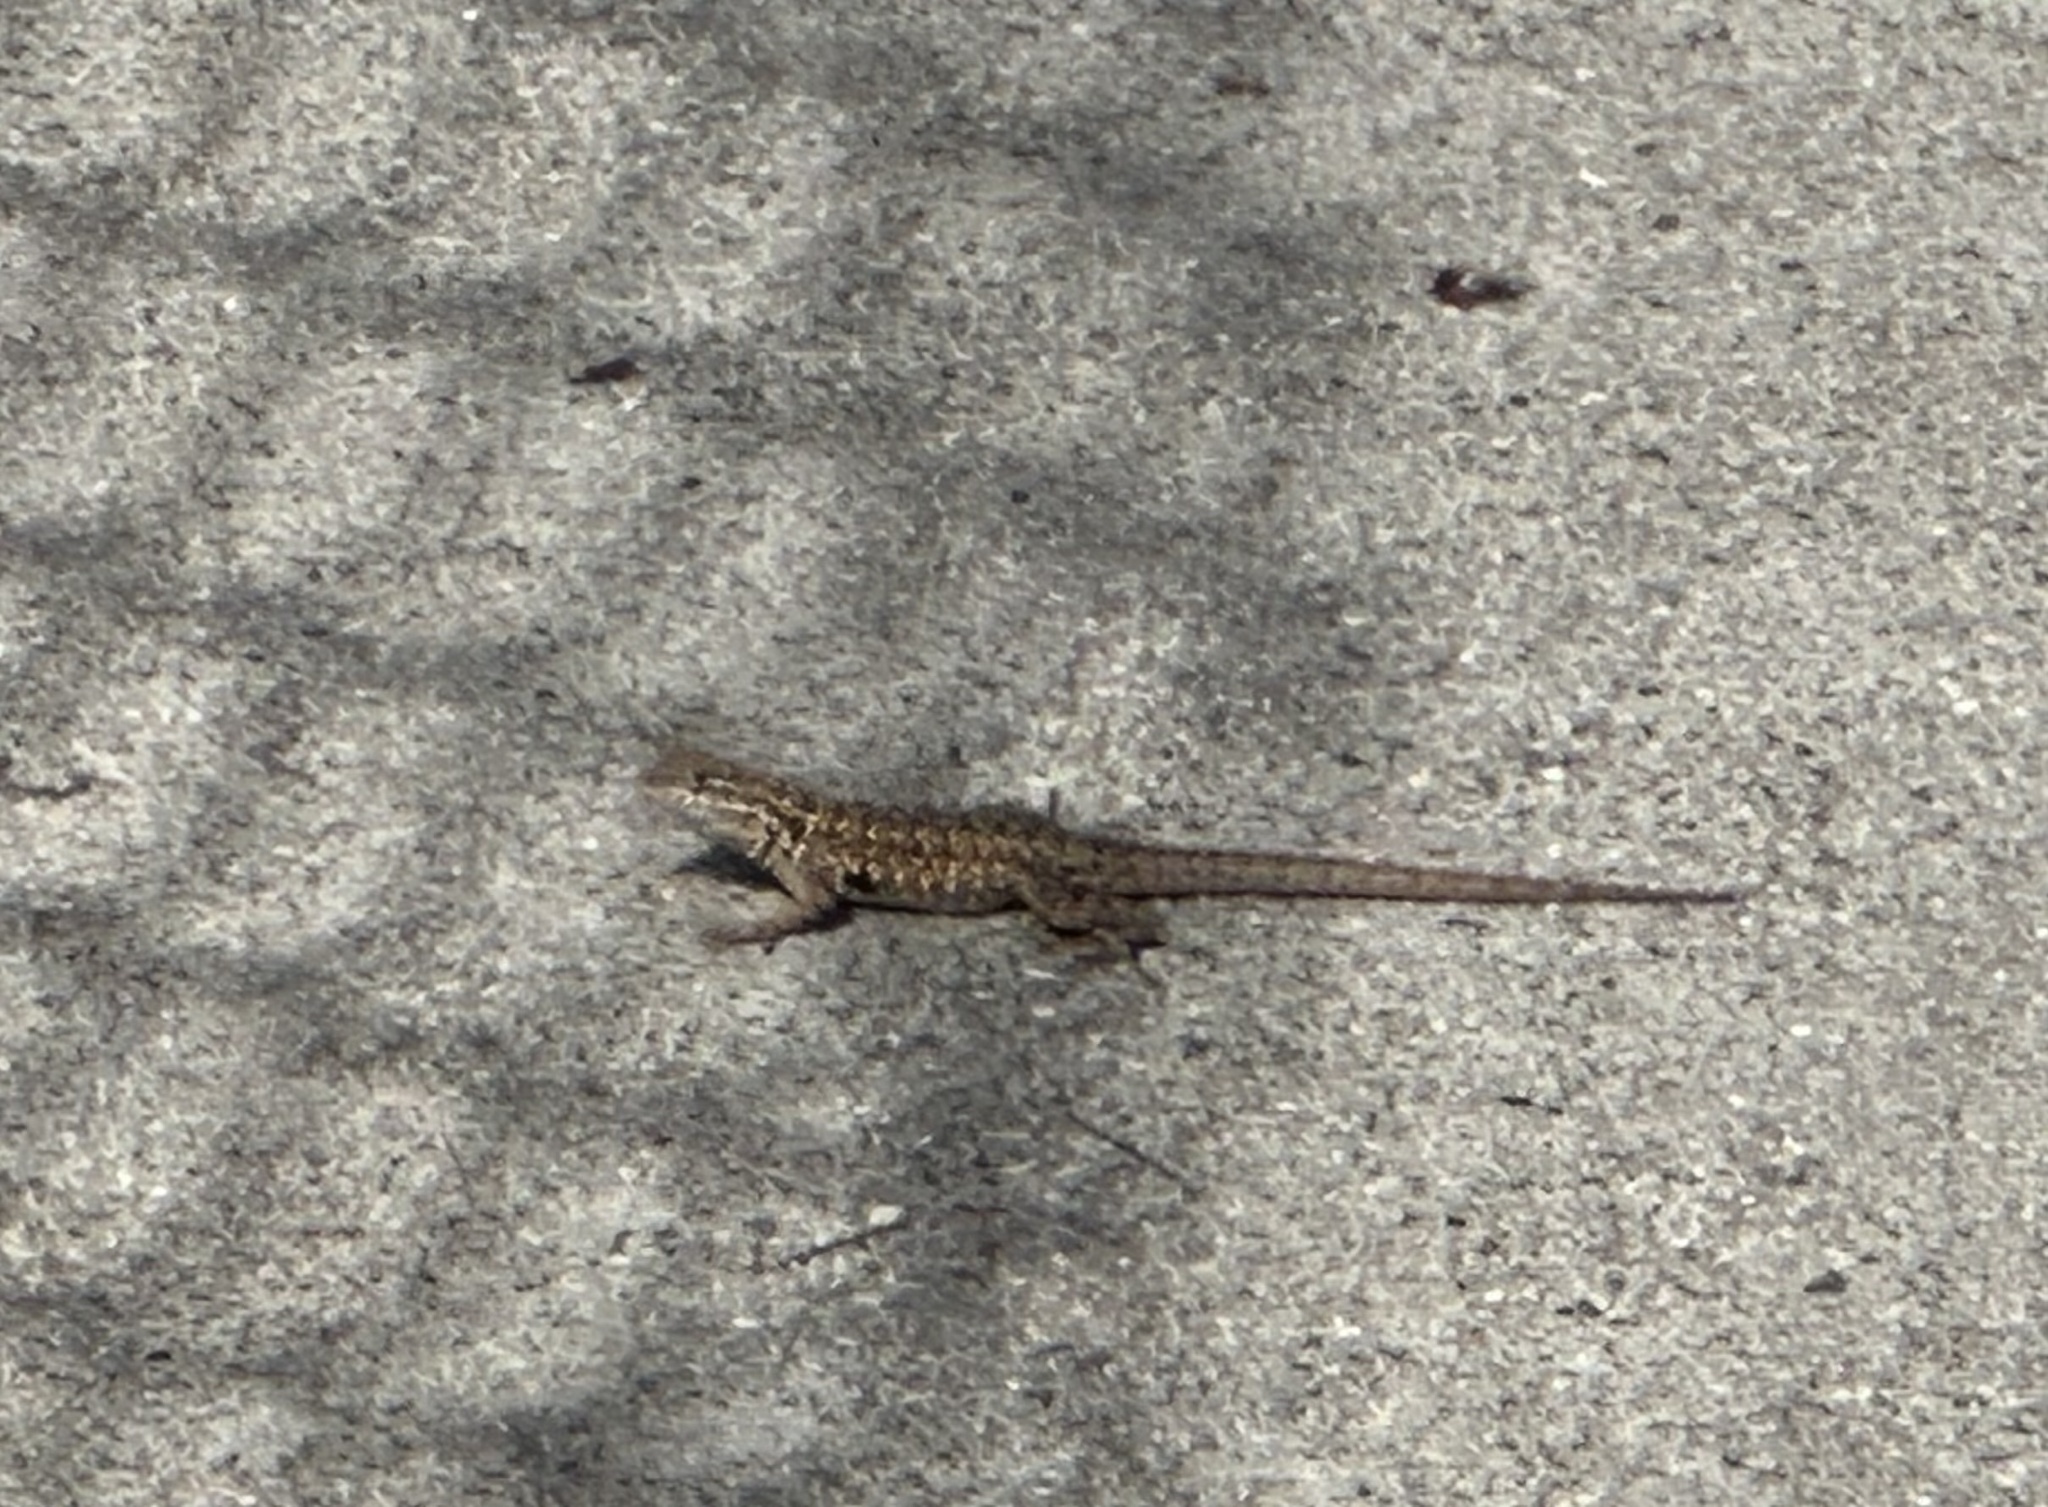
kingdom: Animalia
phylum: Chordata
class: Squamata
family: Phrynosomatidae
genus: Uta
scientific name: Uta stansburiana
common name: Side-blotched lizard
